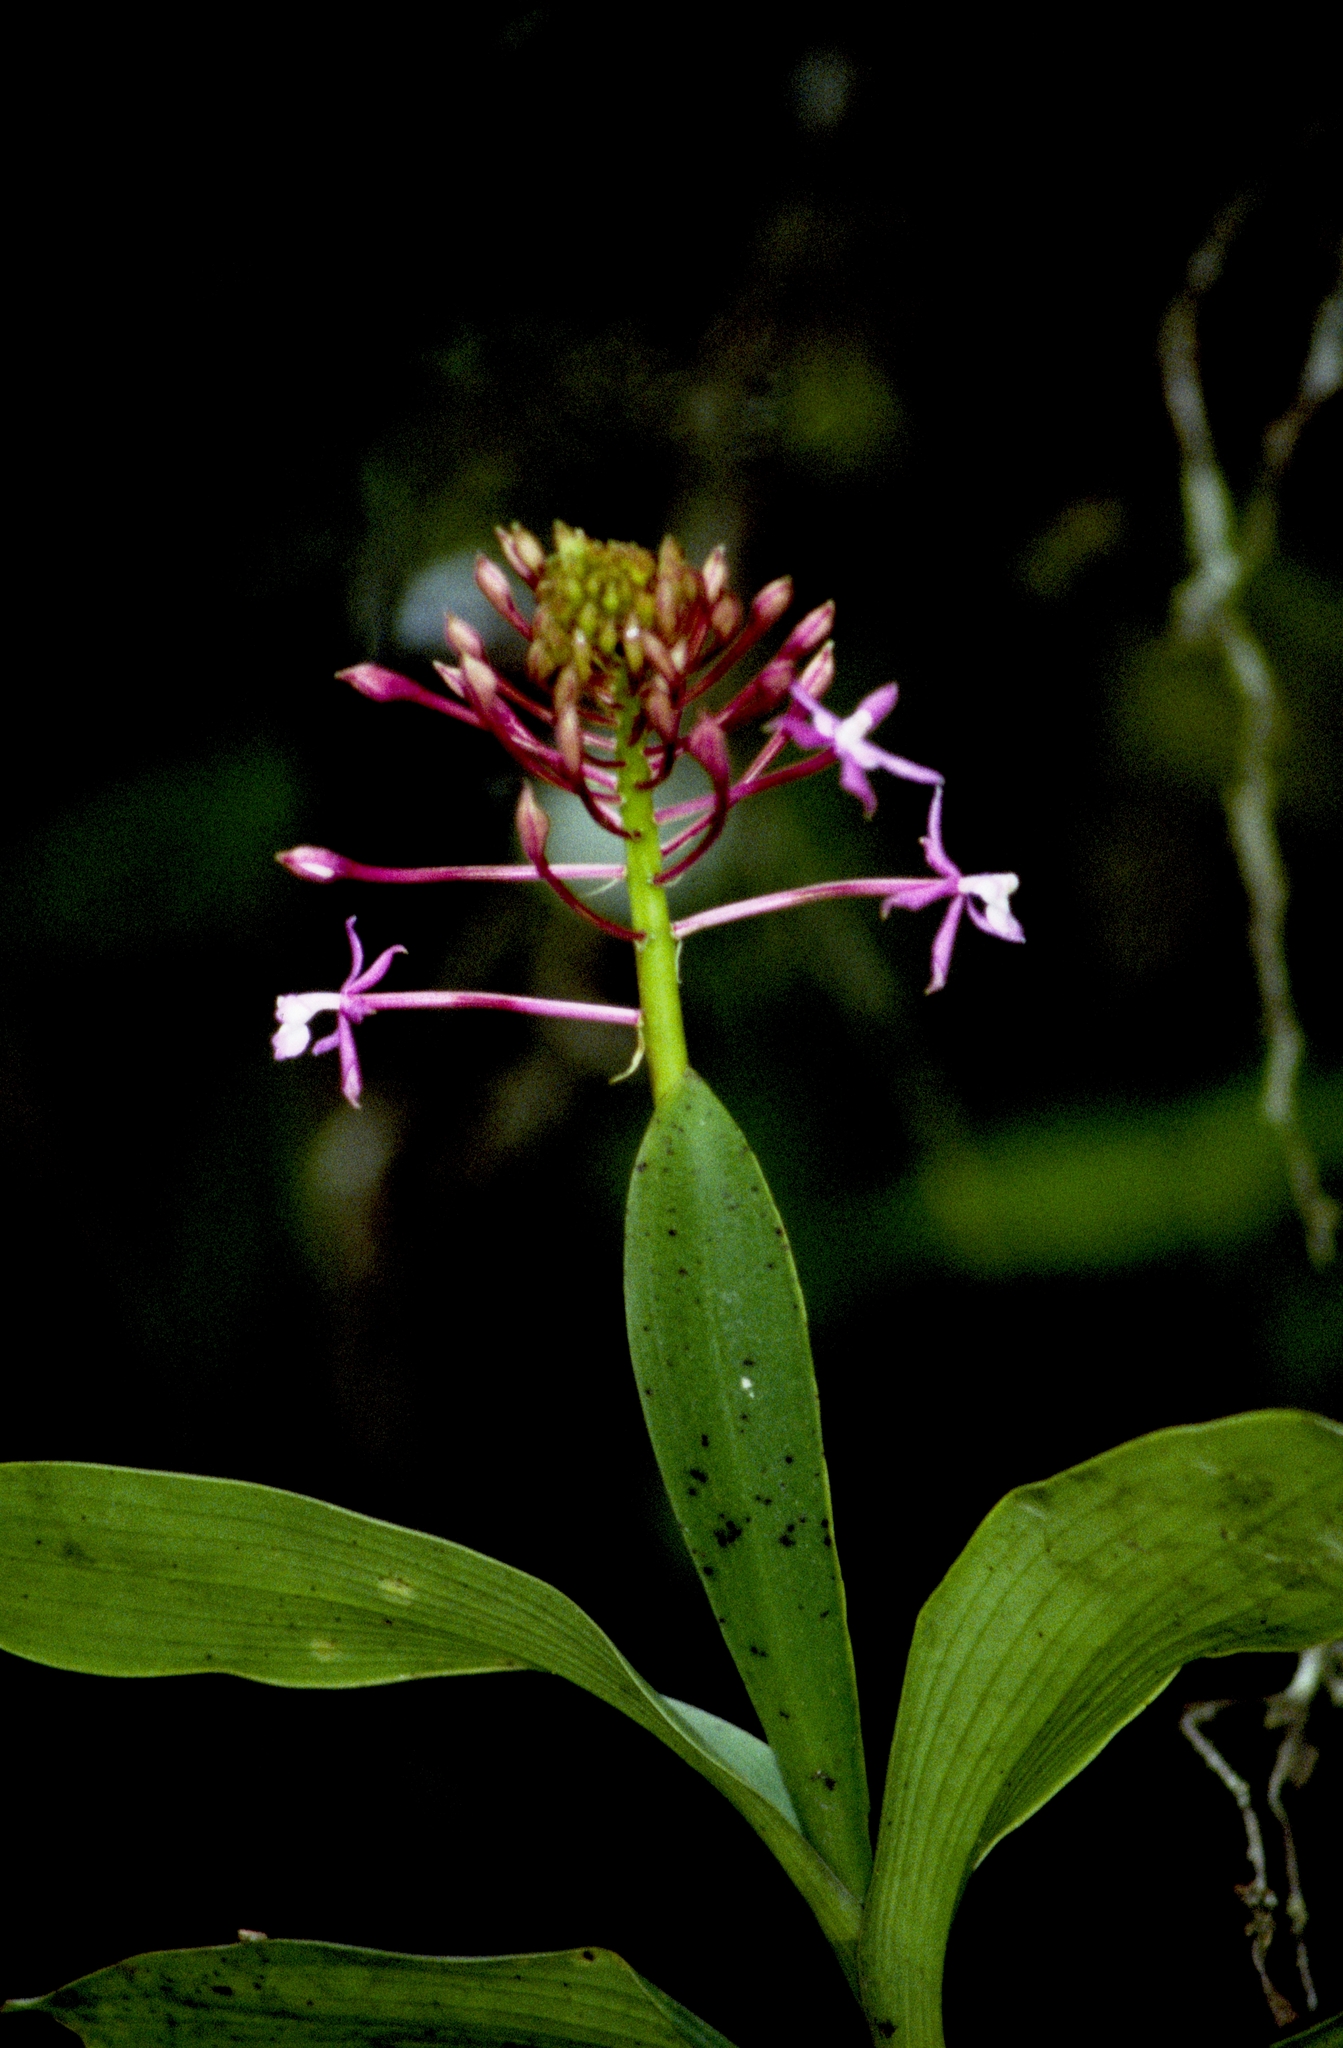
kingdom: Plantae
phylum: Tracheophyta
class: Liliopsida
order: Asparagales
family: Orchidaceae
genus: Epidendrum
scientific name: Epidendrum syringothyrsus
